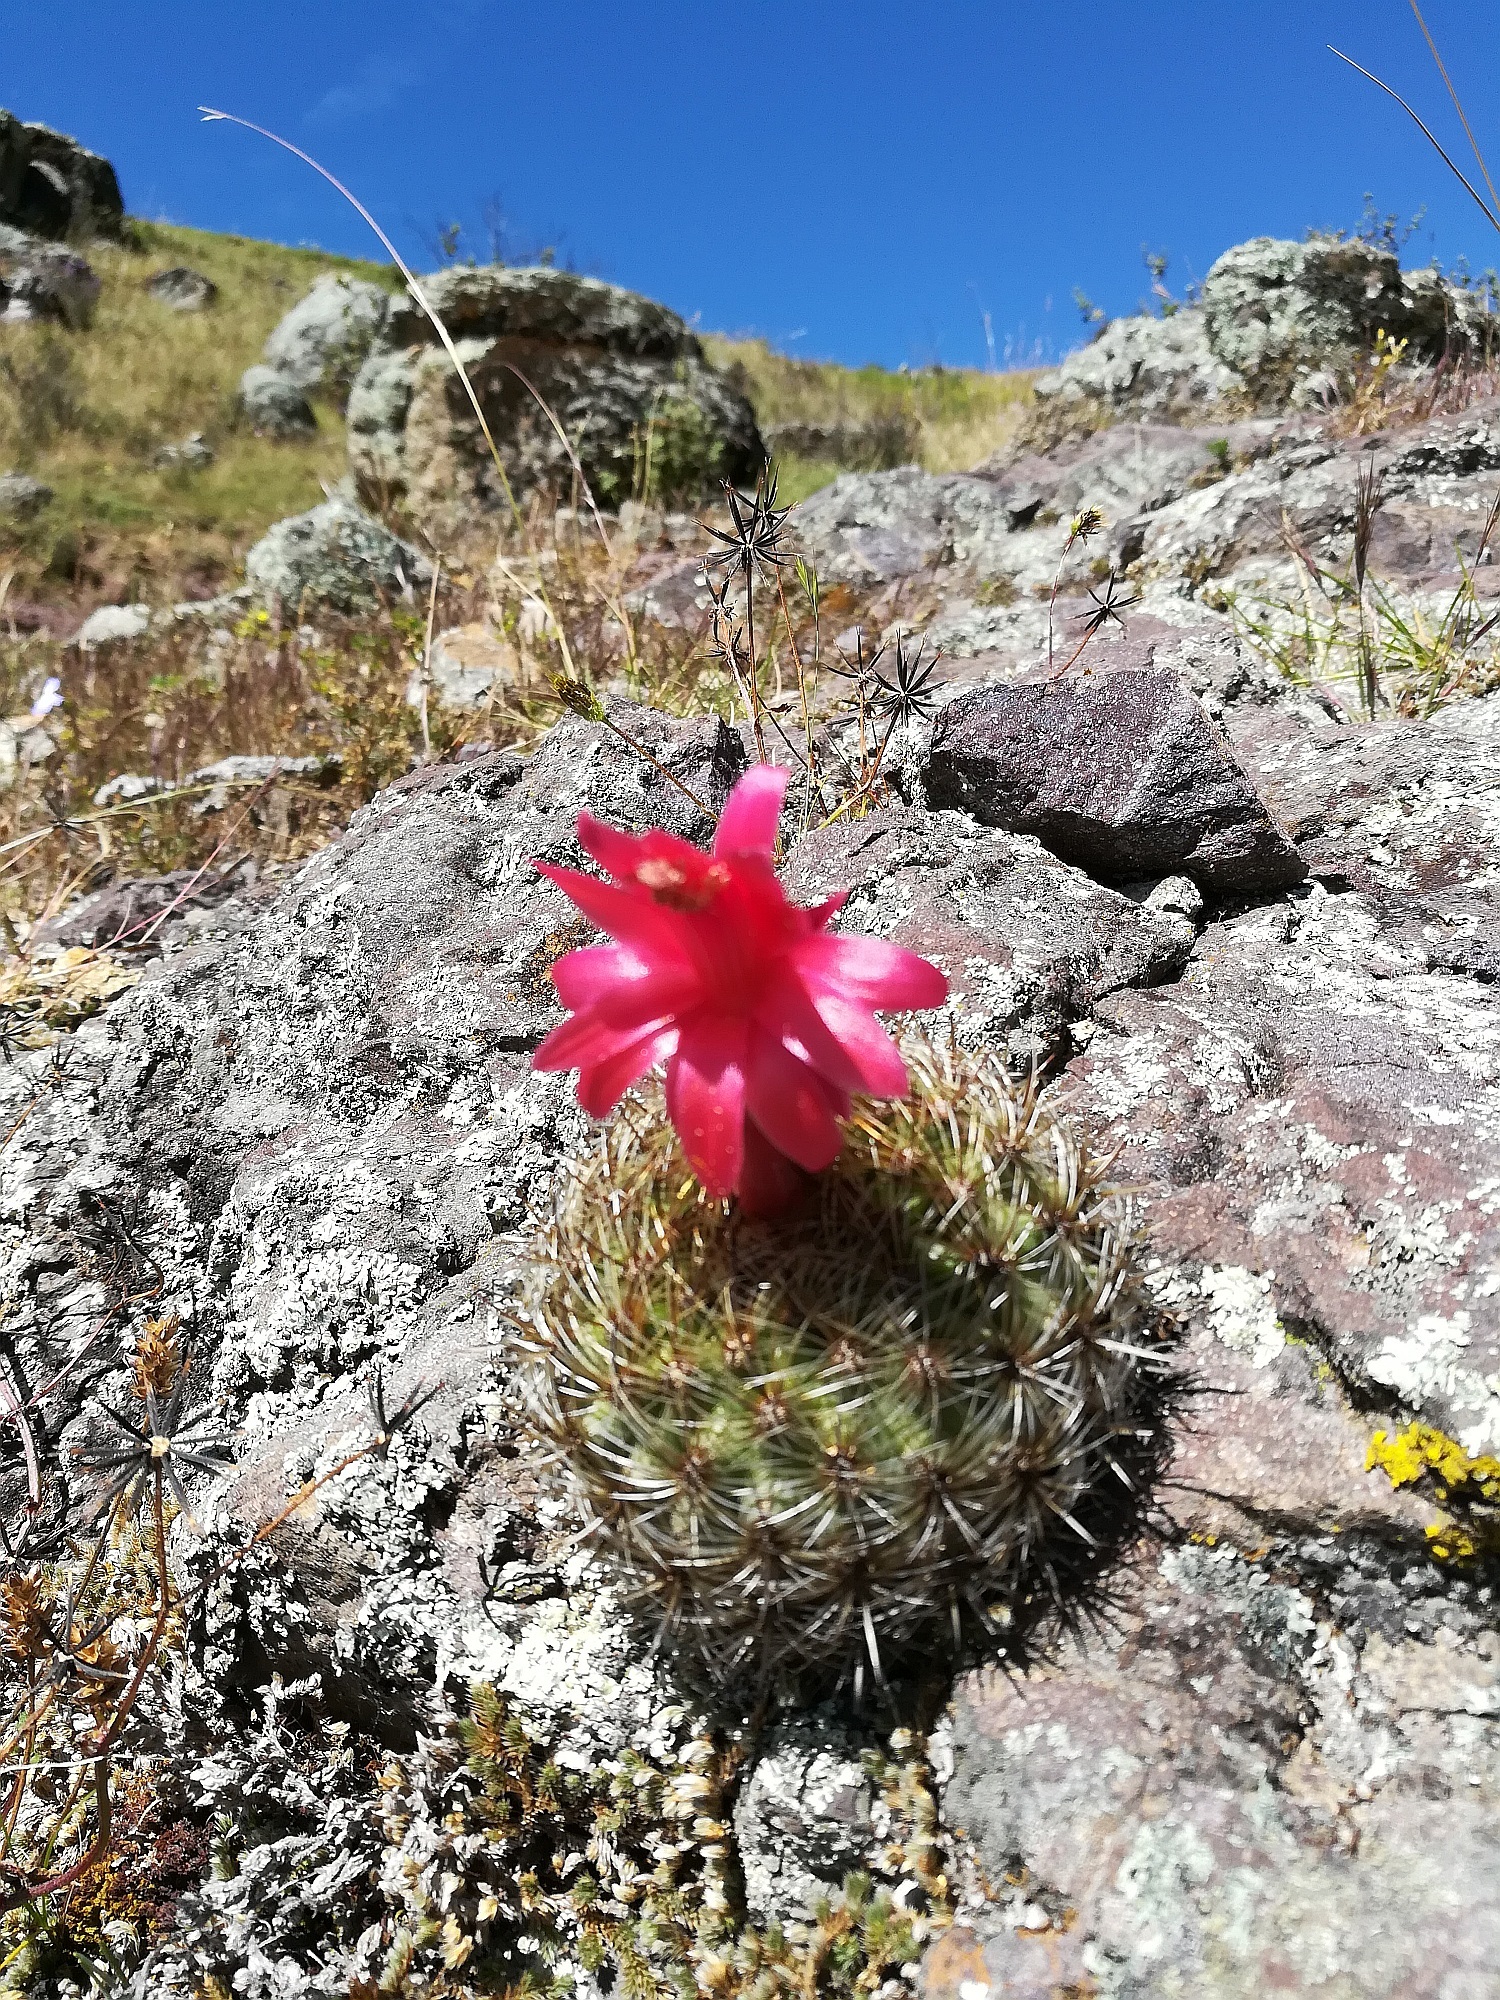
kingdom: Plantae
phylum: Tracheophyta
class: Magnoliopsida
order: Caryophyllales
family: Cactaceae
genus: Matucana
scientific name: Matucana haynii
